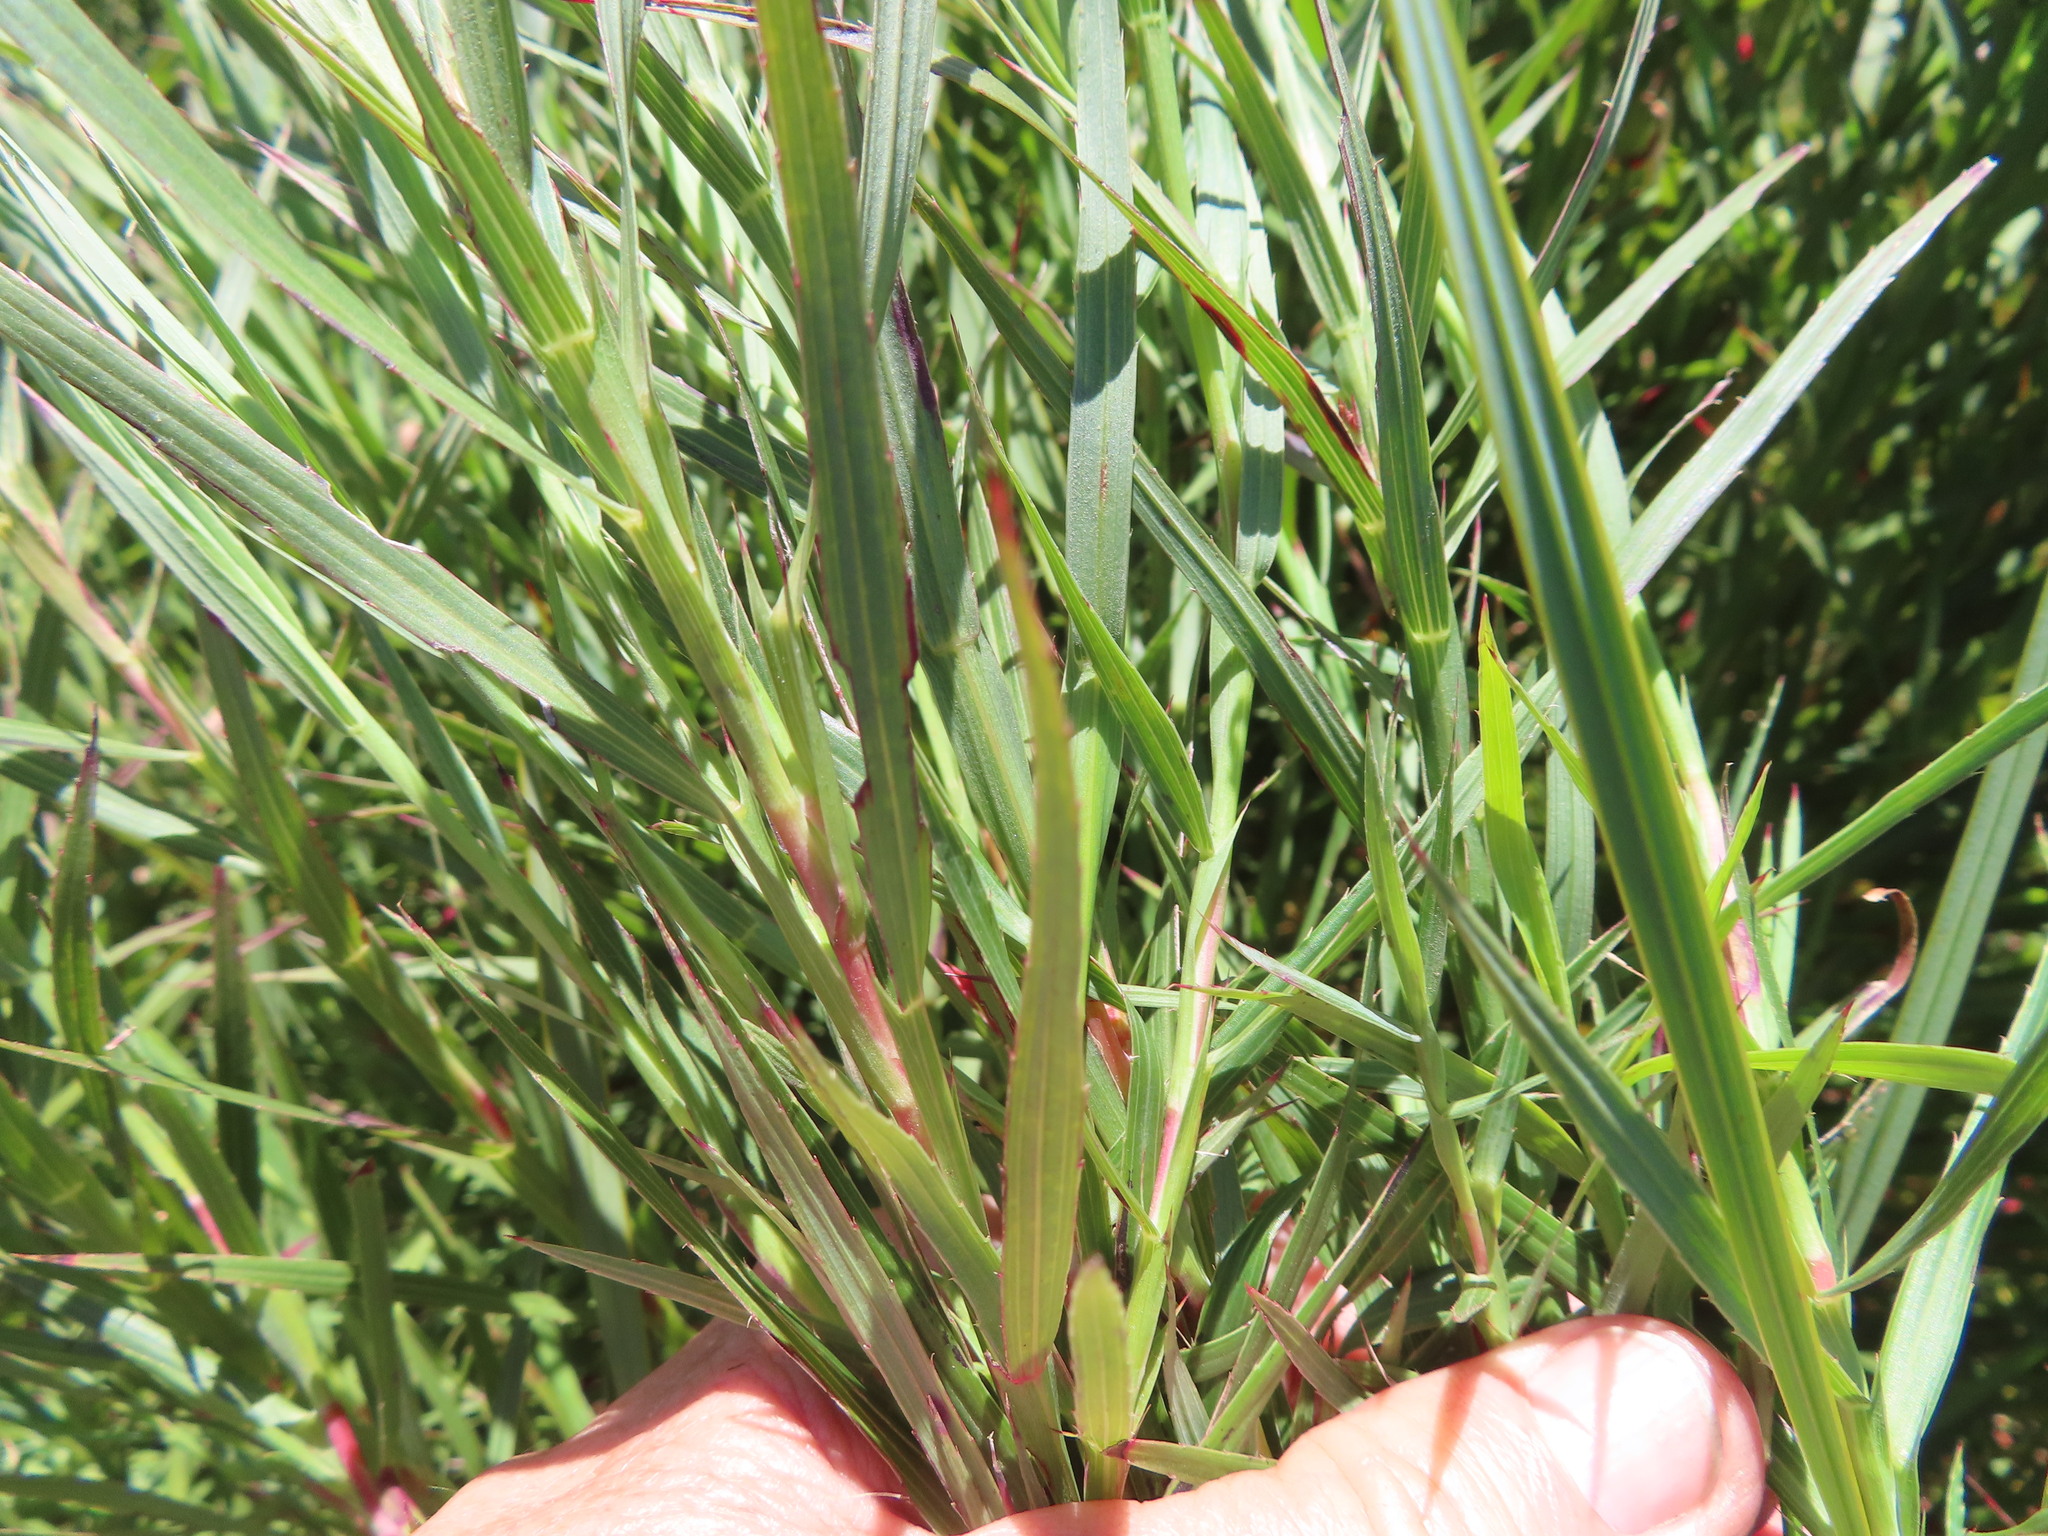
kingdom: Plantae
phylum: Tracheophyta
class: Magnoliopsida
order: Rosales
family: Rosaceae
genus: Cliffortia
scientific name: Cliffortia graminea
